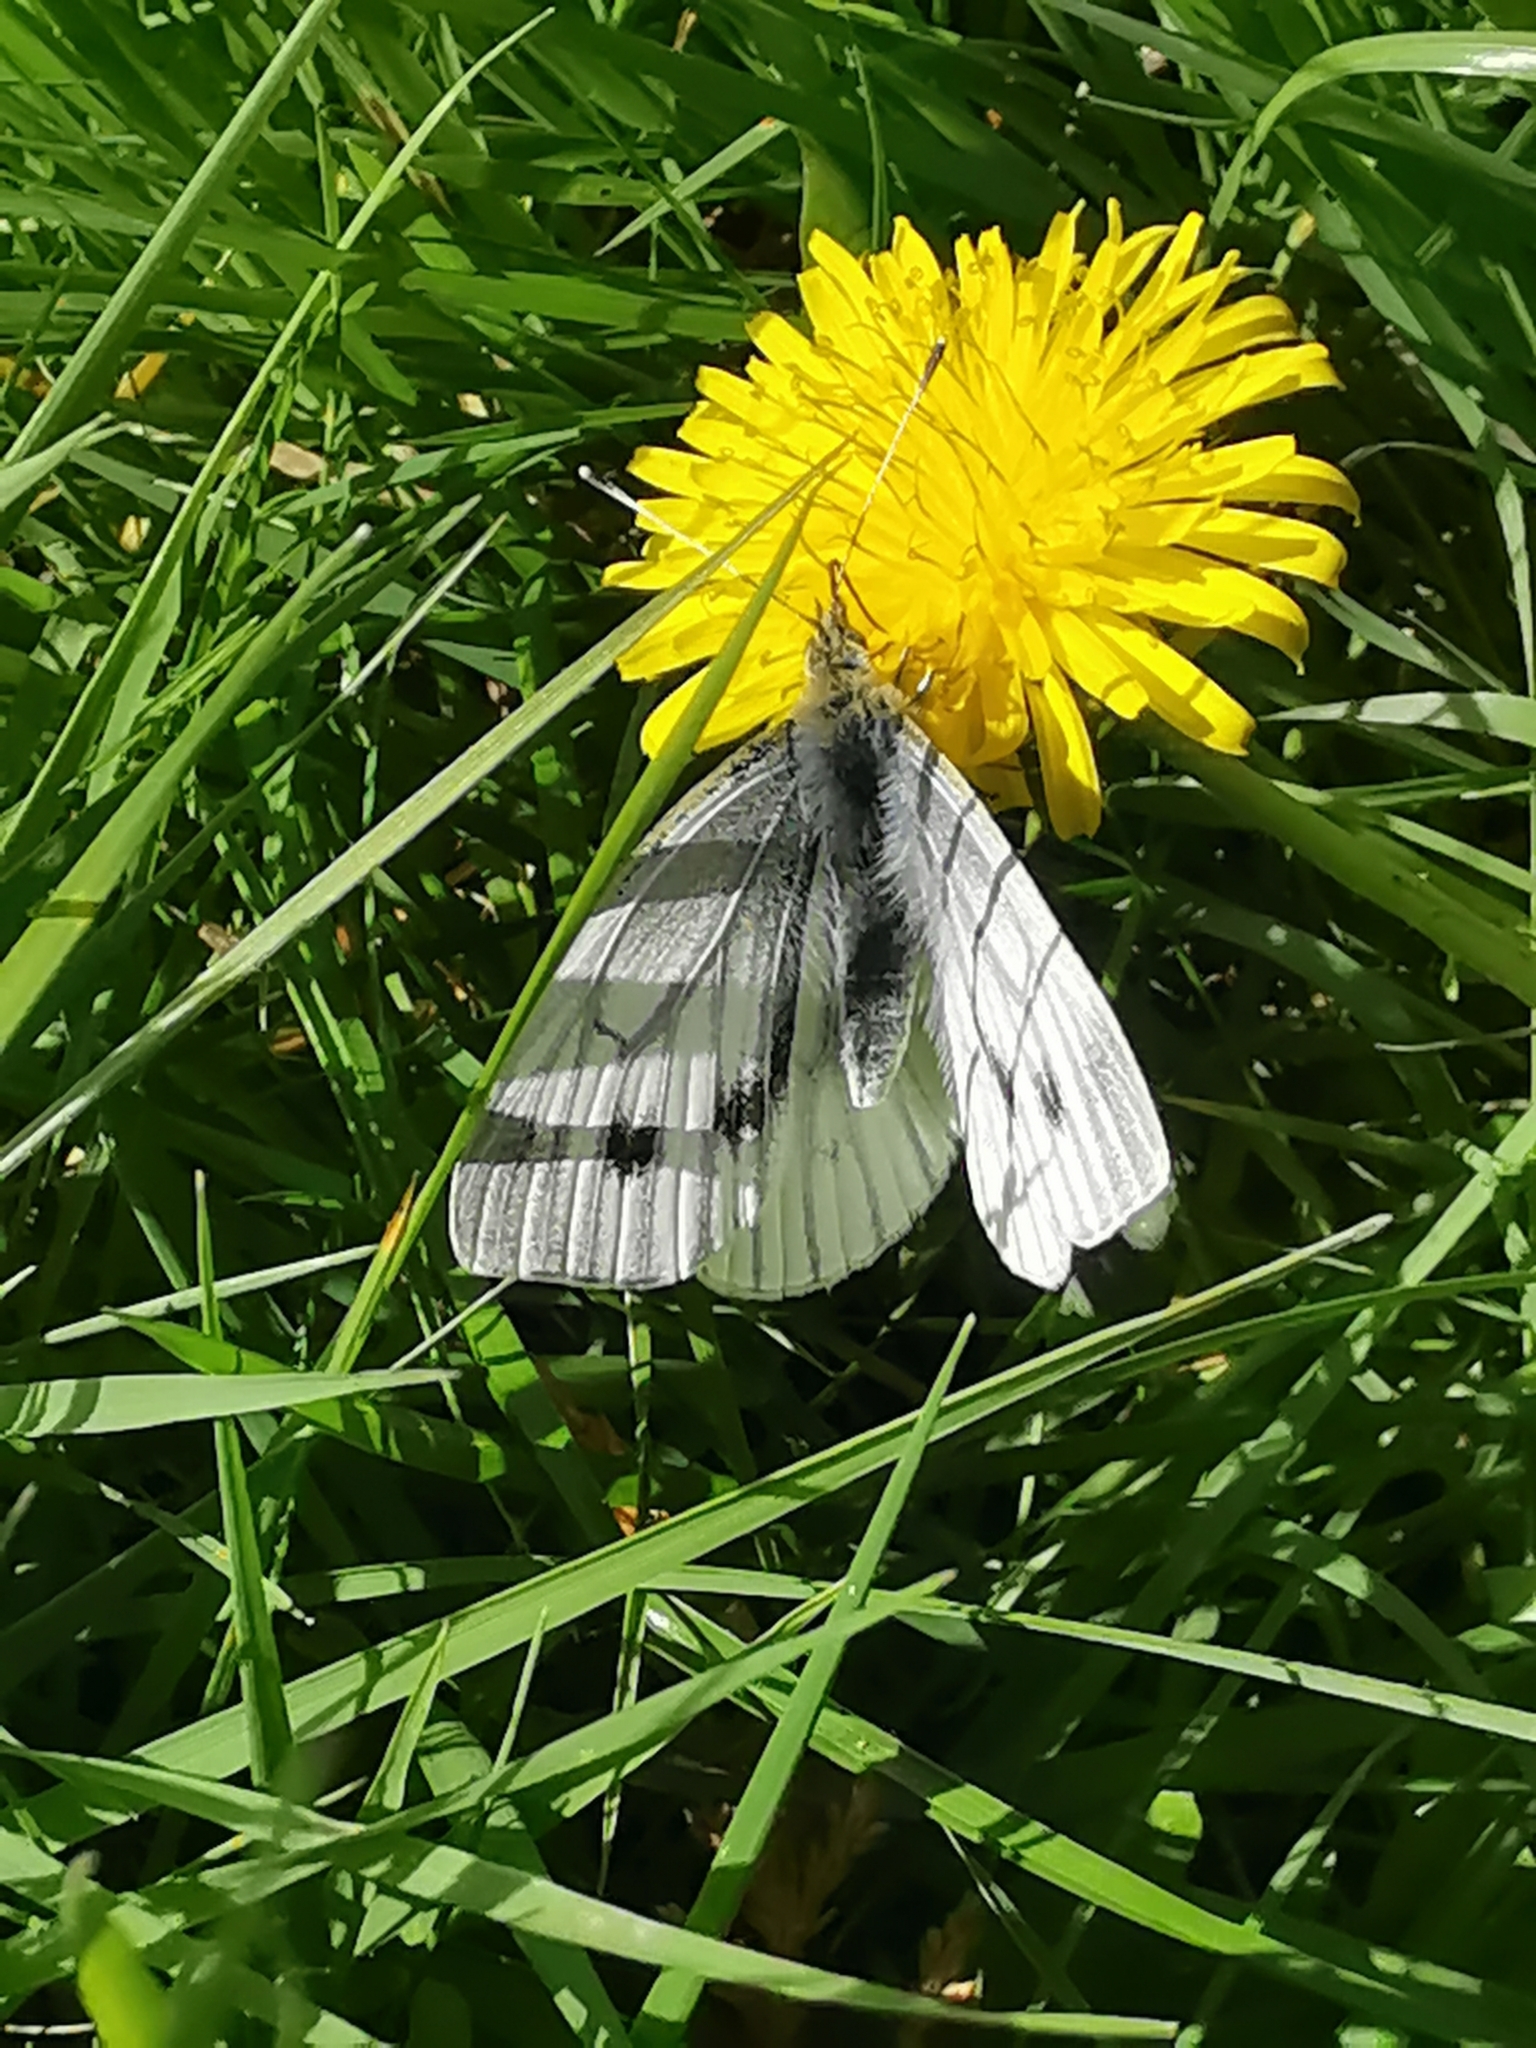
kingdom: Animalia
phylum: Arthropoda
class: Insecta
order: Lepidoptera
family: Pieridae
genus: Pieris
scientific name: Pieris napi
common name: Green-veined white
